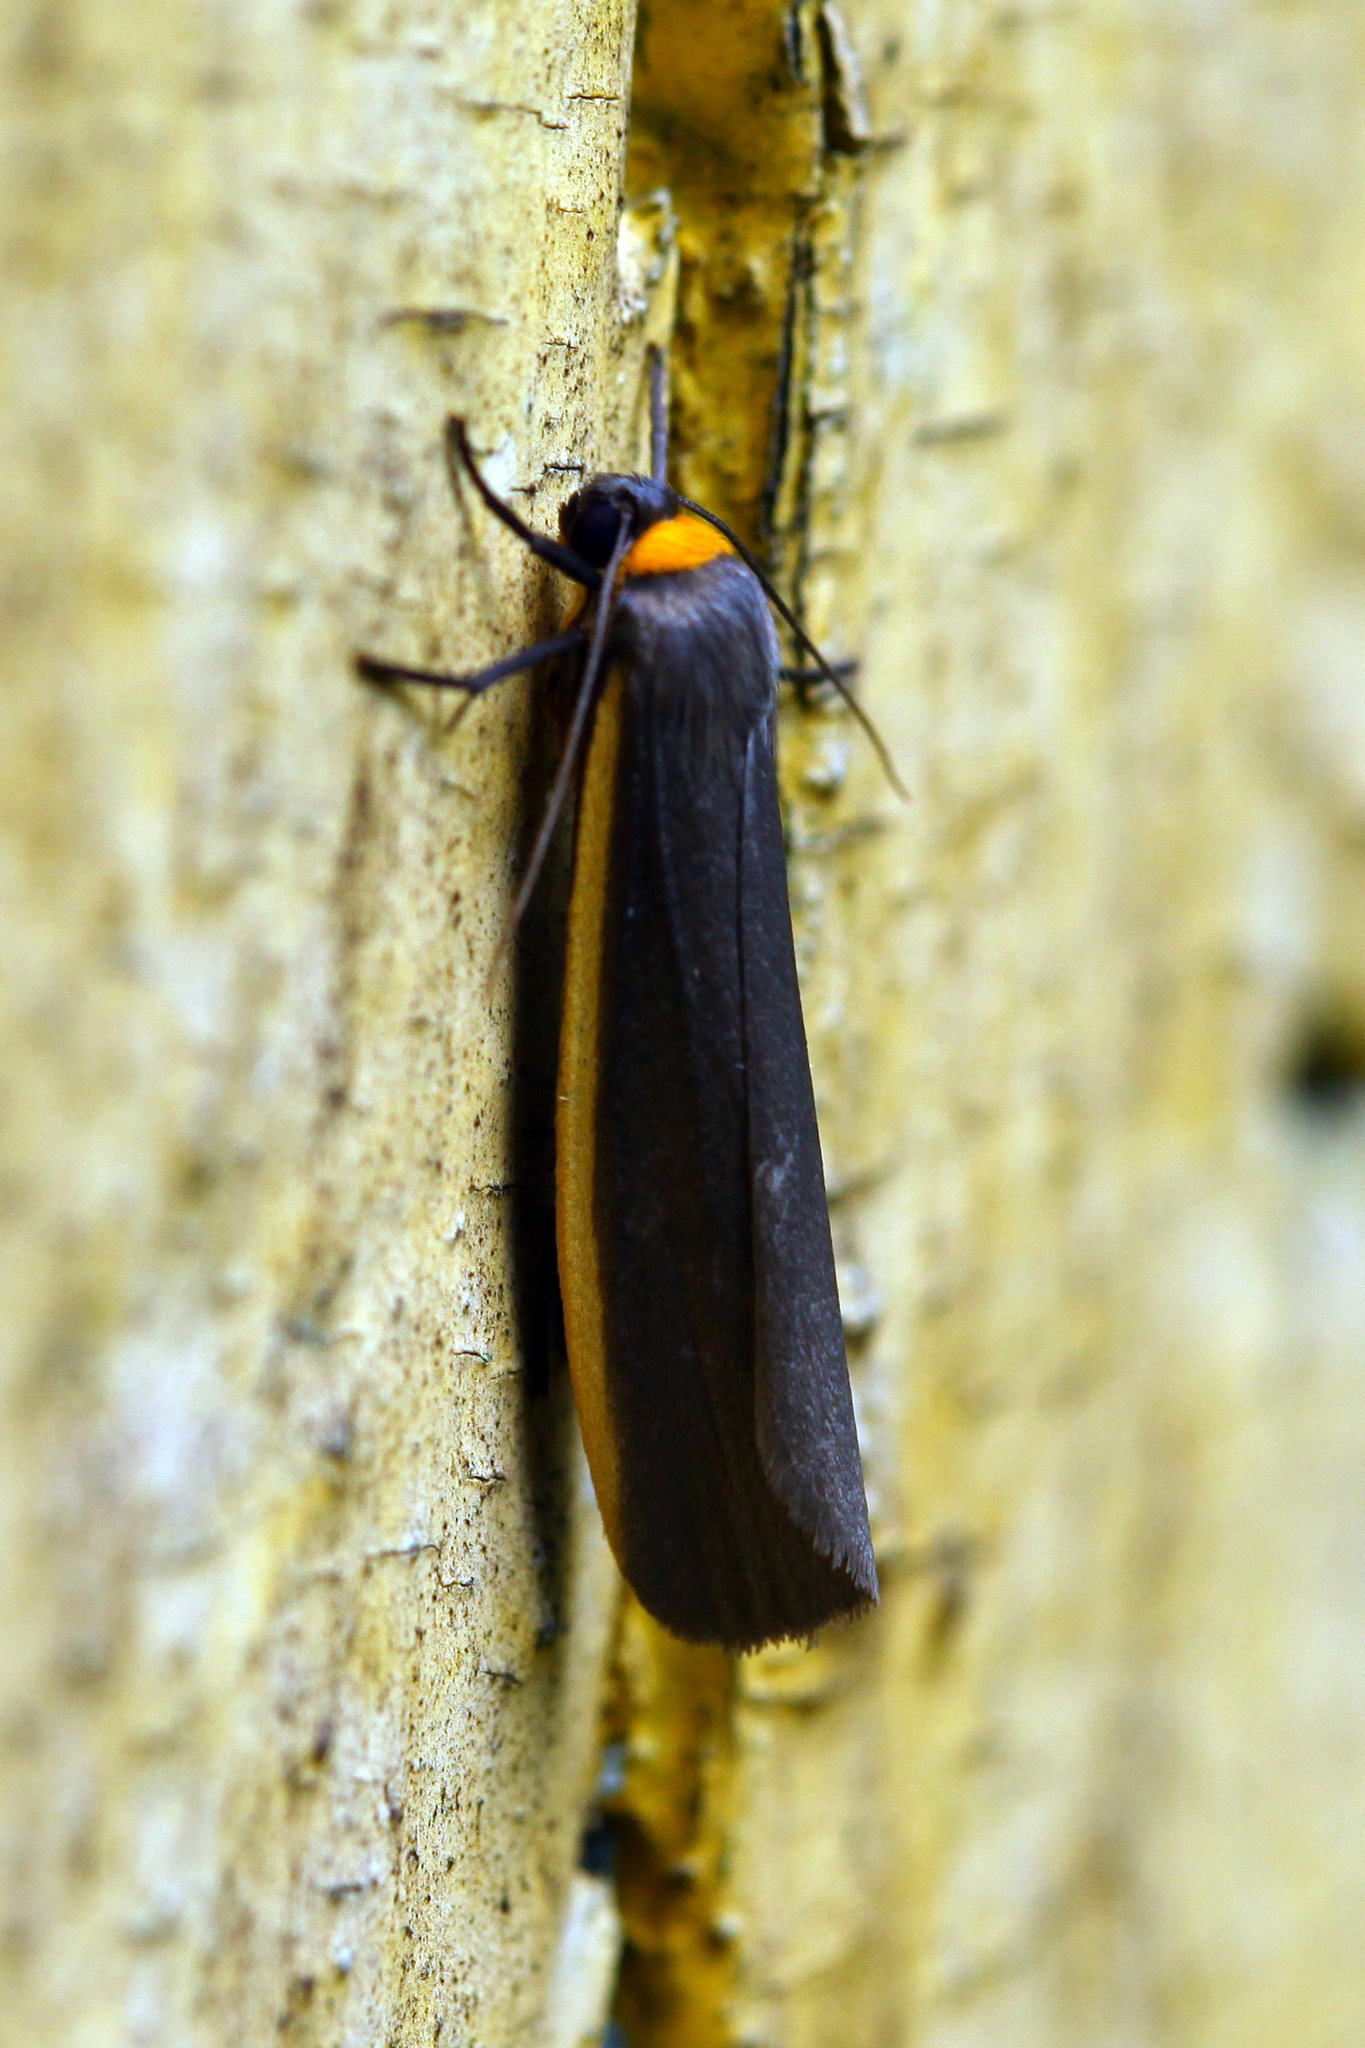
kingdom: Animalia
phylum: Arthropoda
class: Insecta
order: Lepidoptera
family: Erebidae
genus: Ghoria
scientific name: Ghoria collitoides
